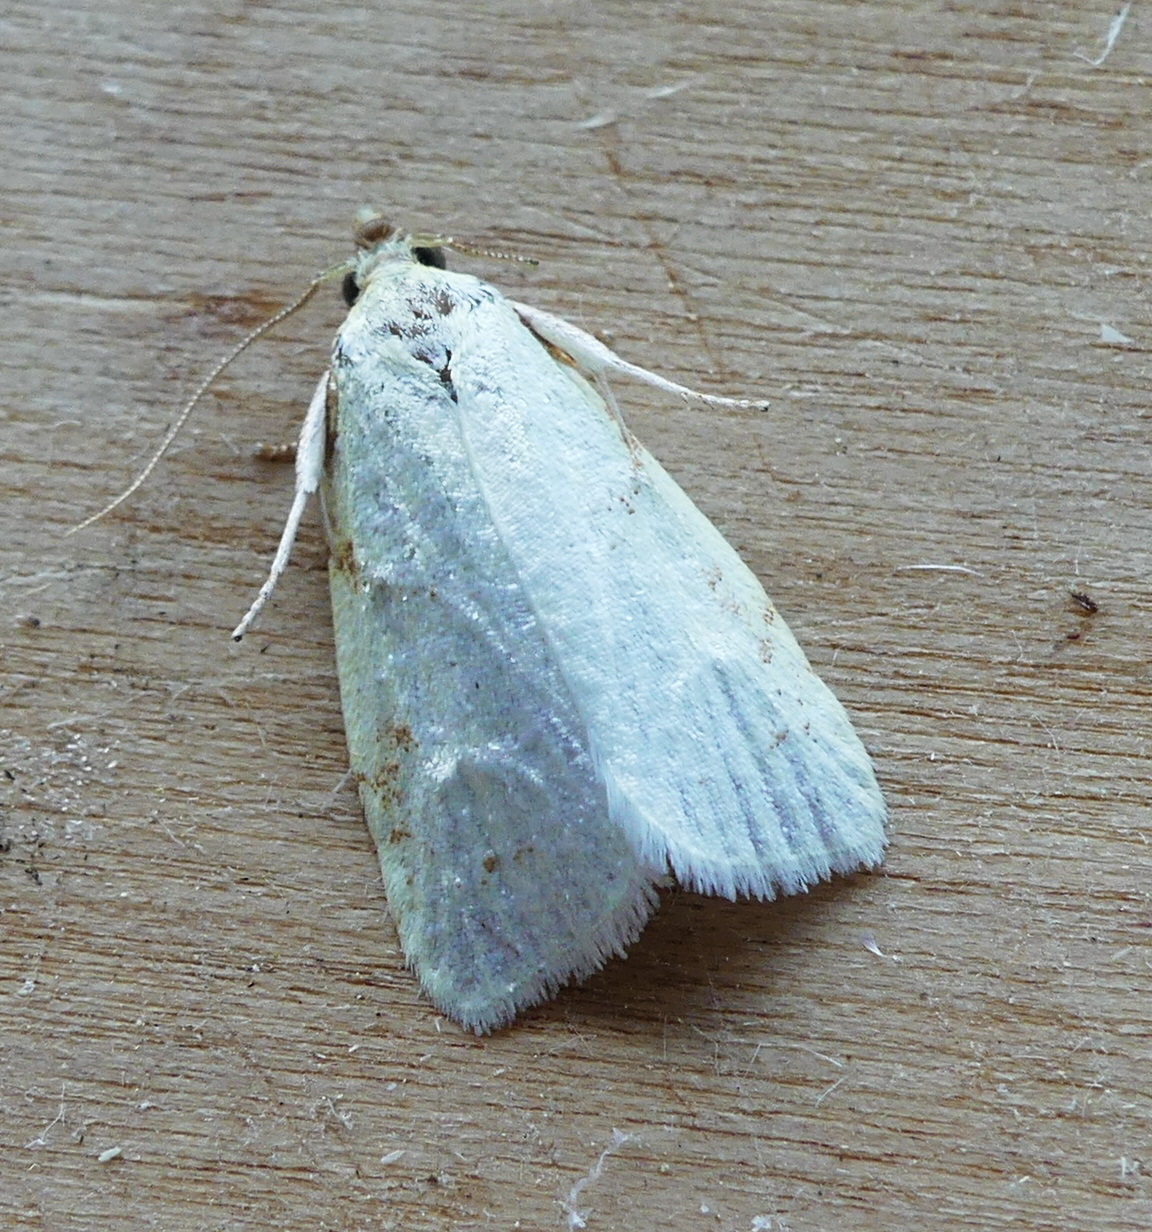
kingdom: Animalia
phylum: Arthropoda
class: Insecta
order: Lepidoptera
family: Tortricidae
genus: Cenopis
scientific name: Cenopis pettitana
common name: Maple-basswood leafroller moth
